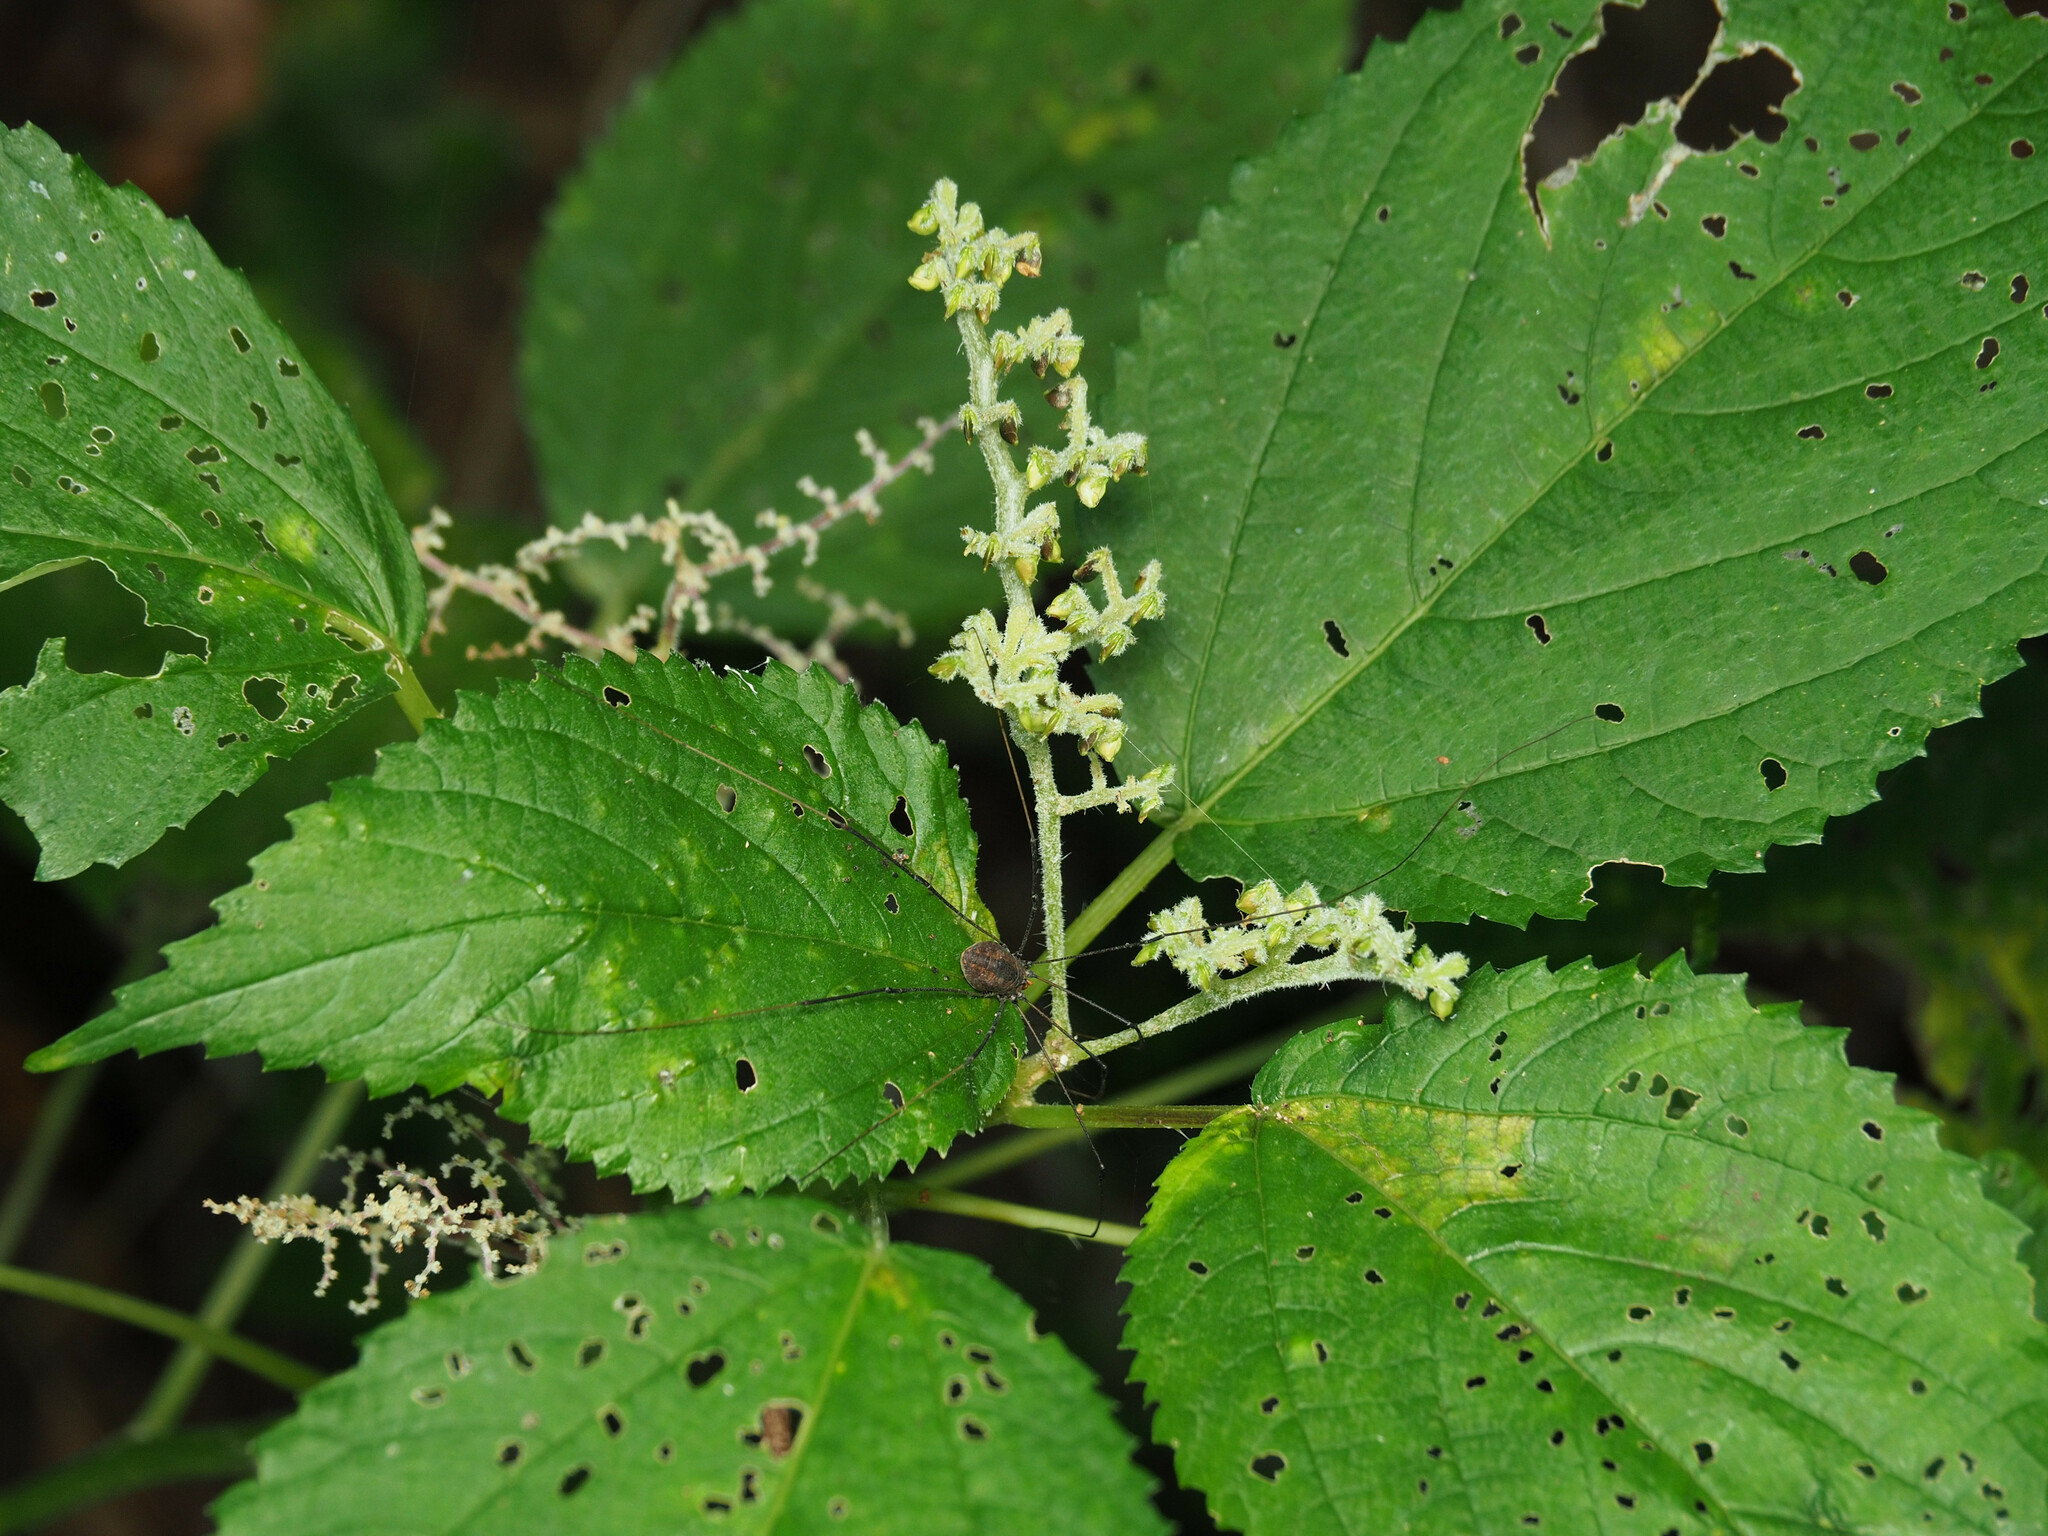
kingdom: Plantae
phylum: Tracheophyta
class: Magnoliopsida
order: Rosales
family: Urticaceae
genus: Laportea
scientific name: Laportea canadensis
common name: Canada nettle
